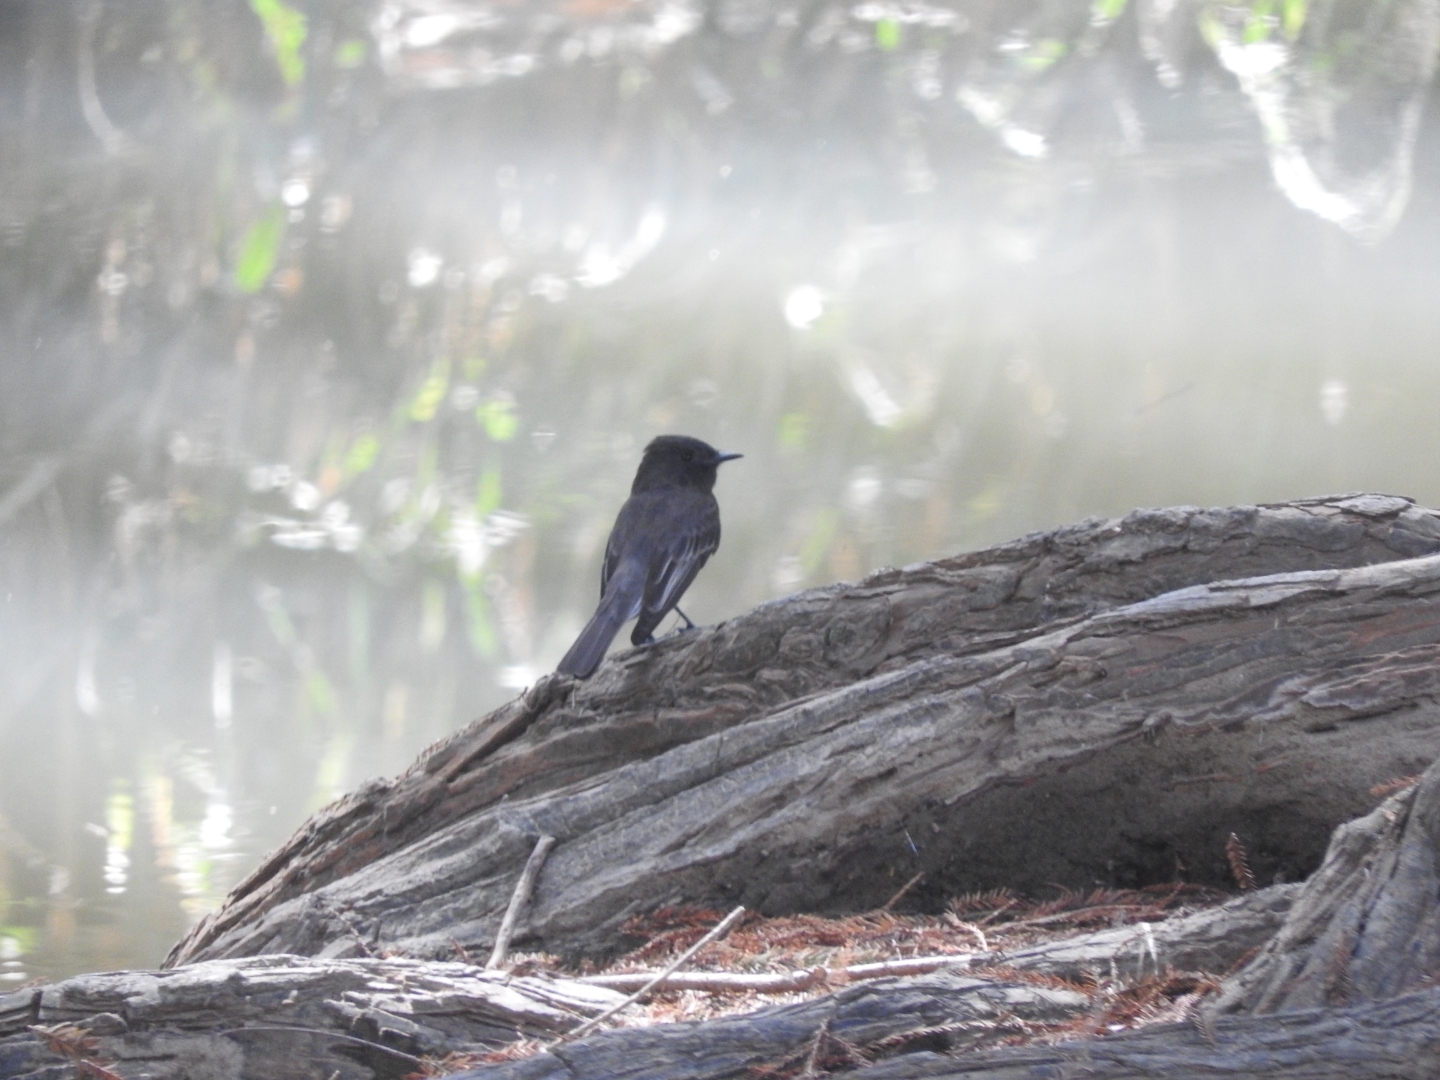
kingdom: Animalia
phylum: Chordata
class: Aves
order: Passeriformes
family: Tyrannidae
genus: Sayornis
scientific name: Sayornis nigricans
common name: Black phoebe
